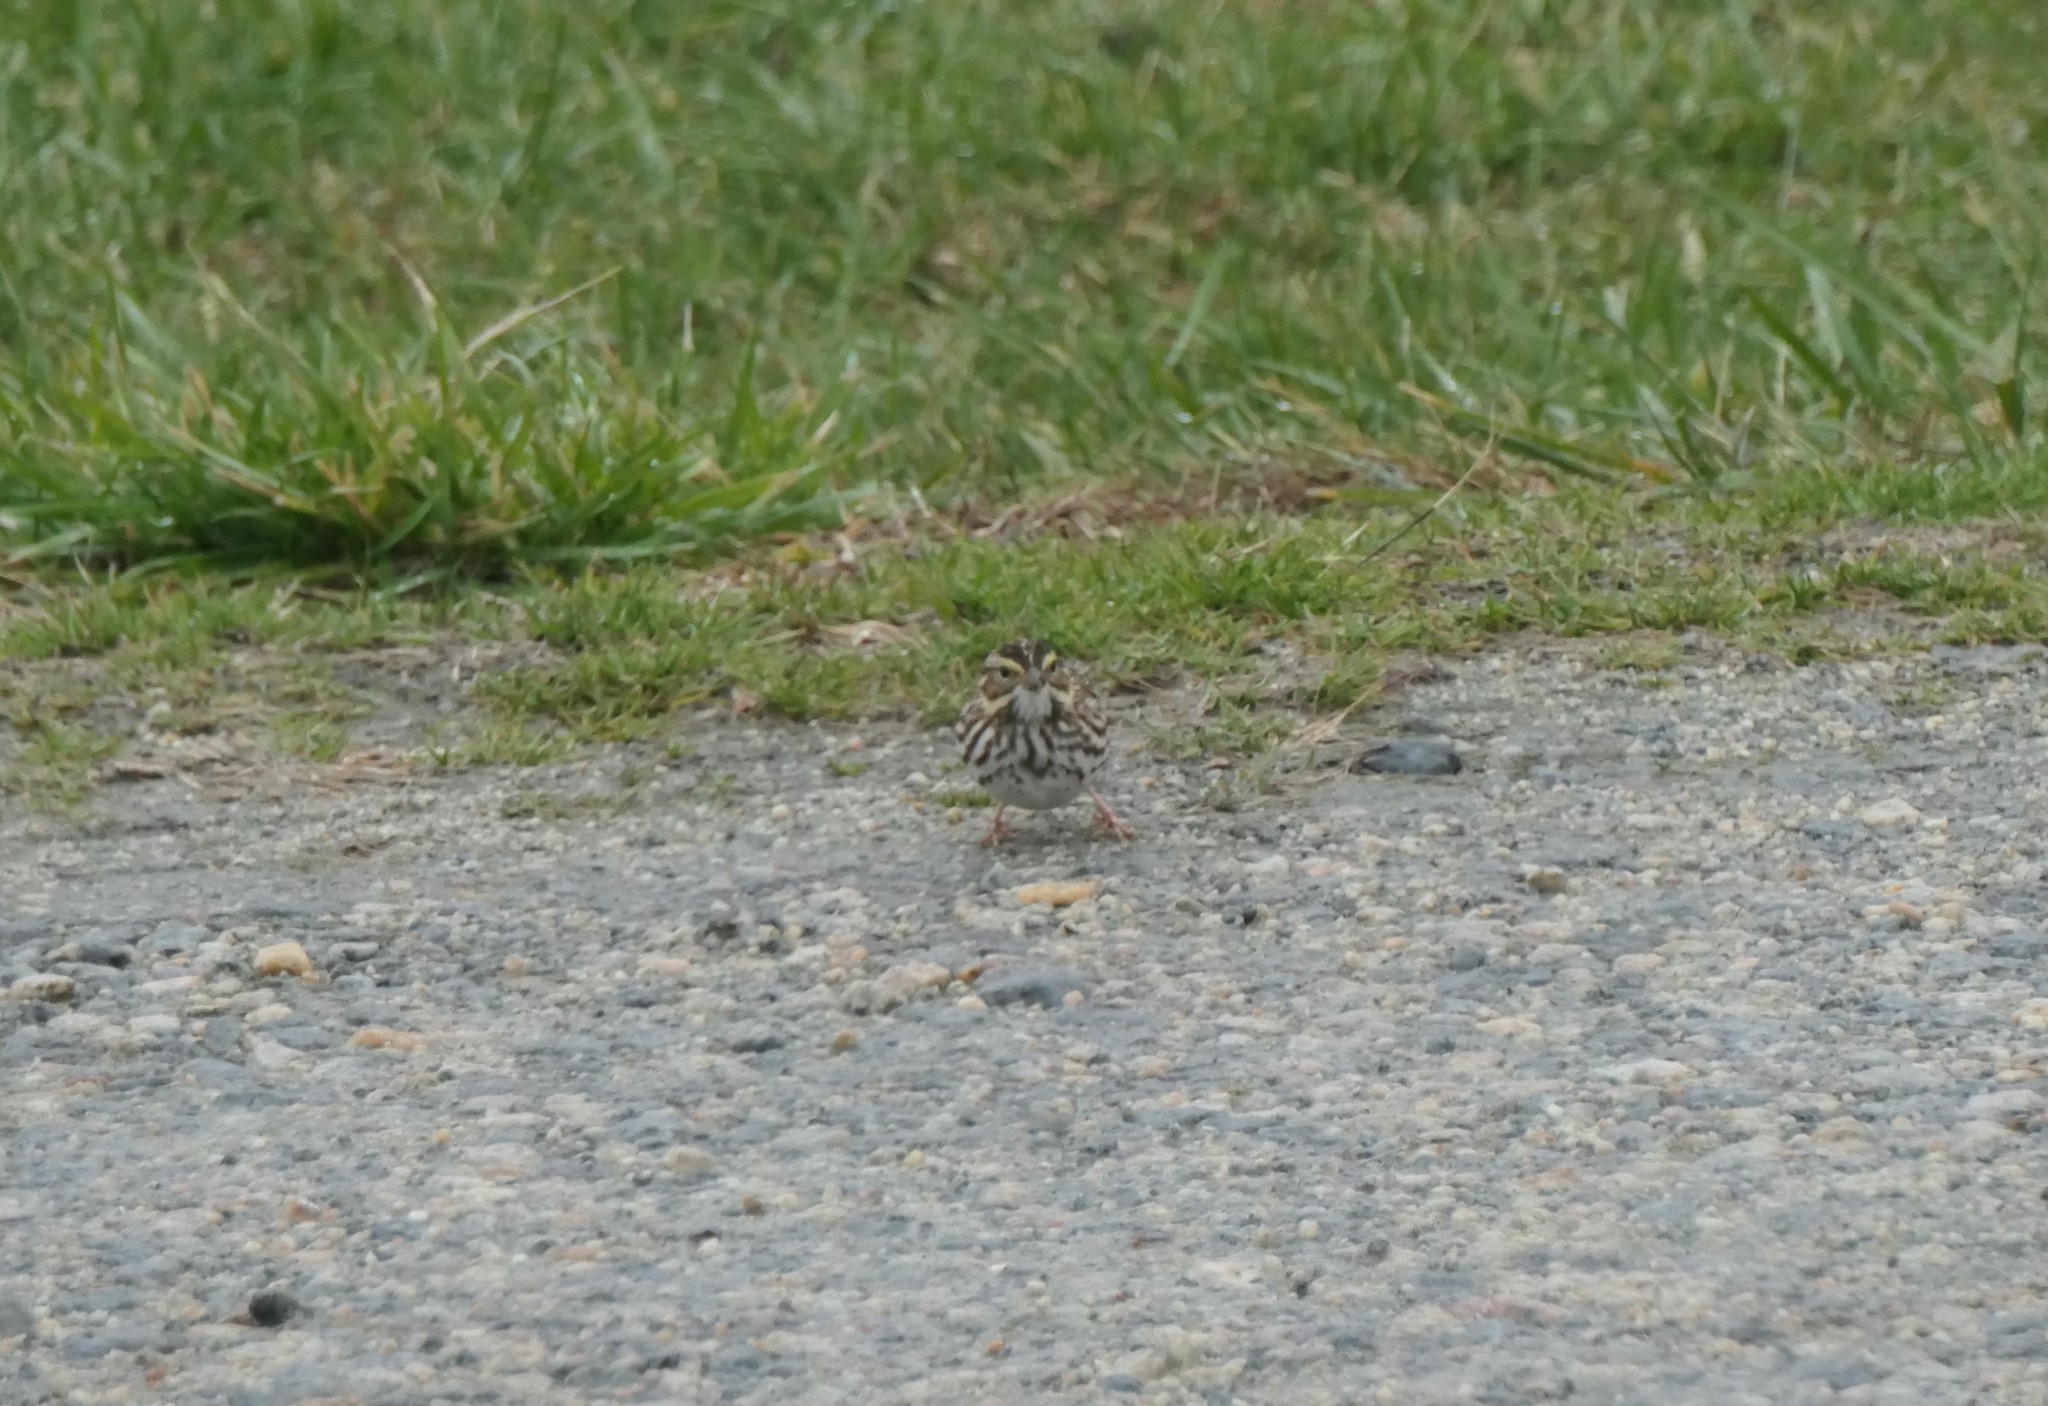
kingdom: Animalia
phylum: Chordata
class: Aves
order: Passeriformes
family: Passerellidae
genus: Passerculus
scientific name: Passerculus sandwichensis
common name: Savannah sparrow
